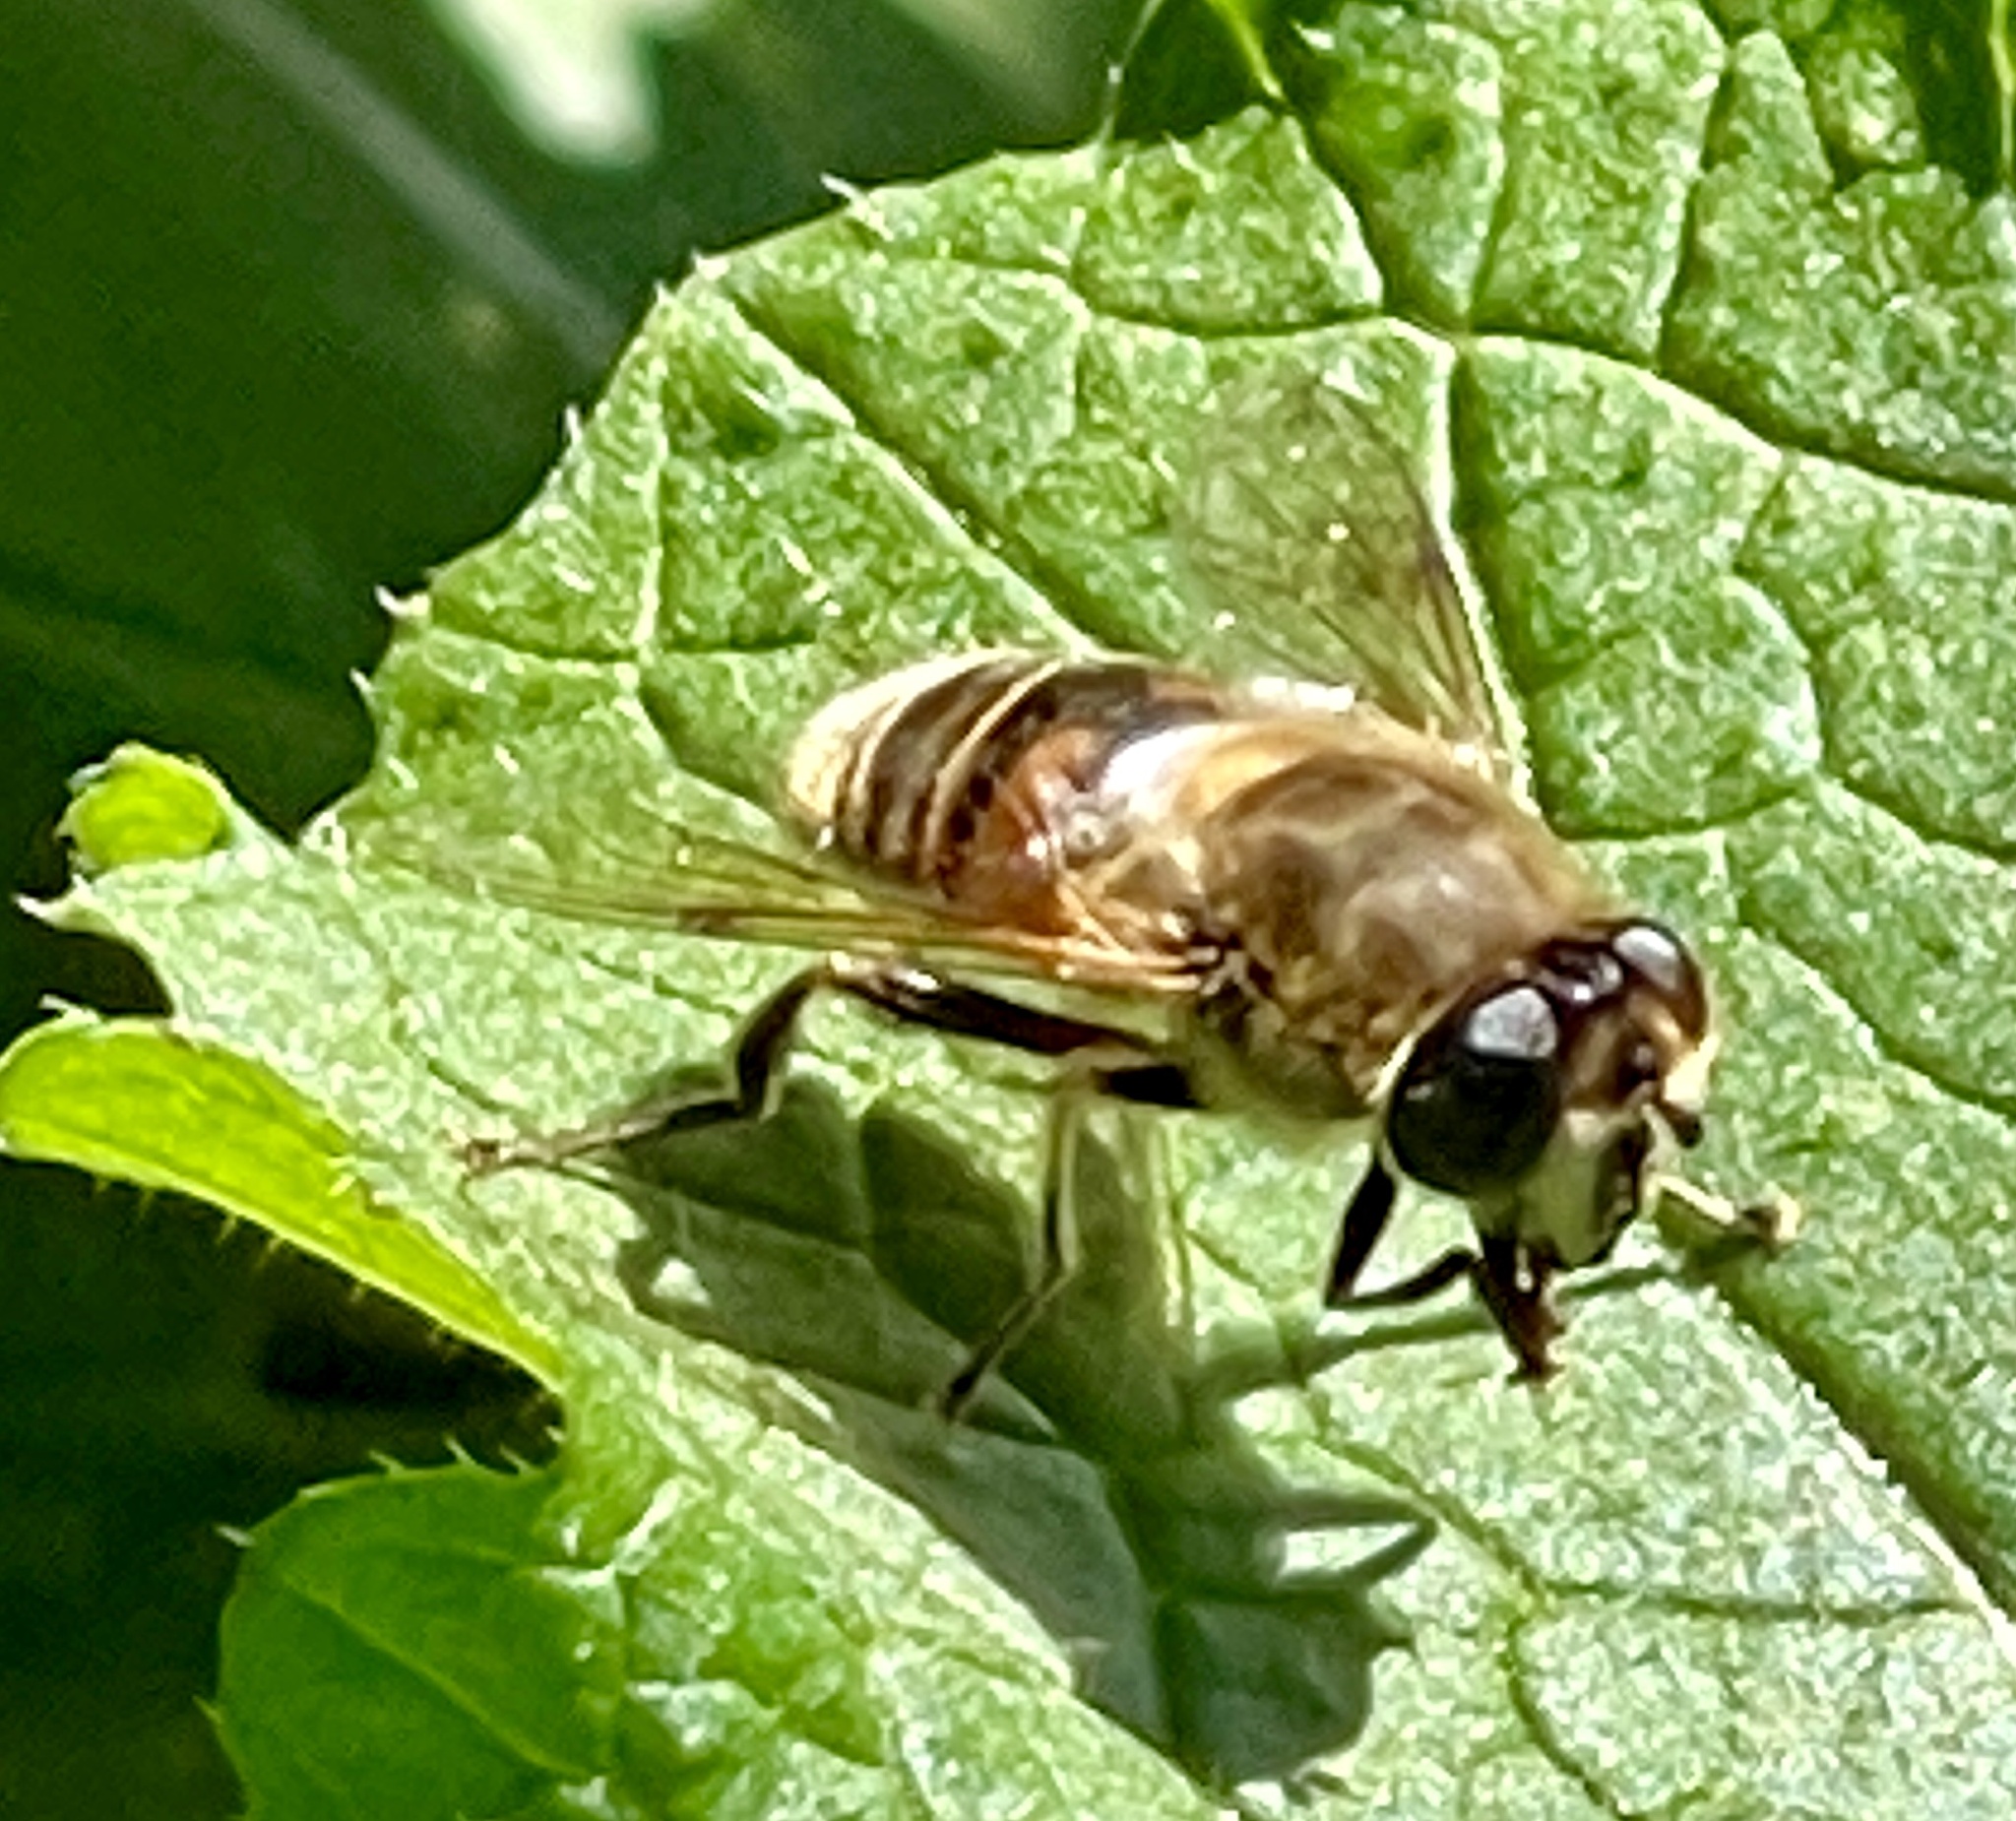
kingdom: Animalia
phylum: Arthropoda
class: Insecta
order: Diptera
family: Syrphidae
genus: Eristalis
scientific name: Eristalis tenax
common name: Drone fly
